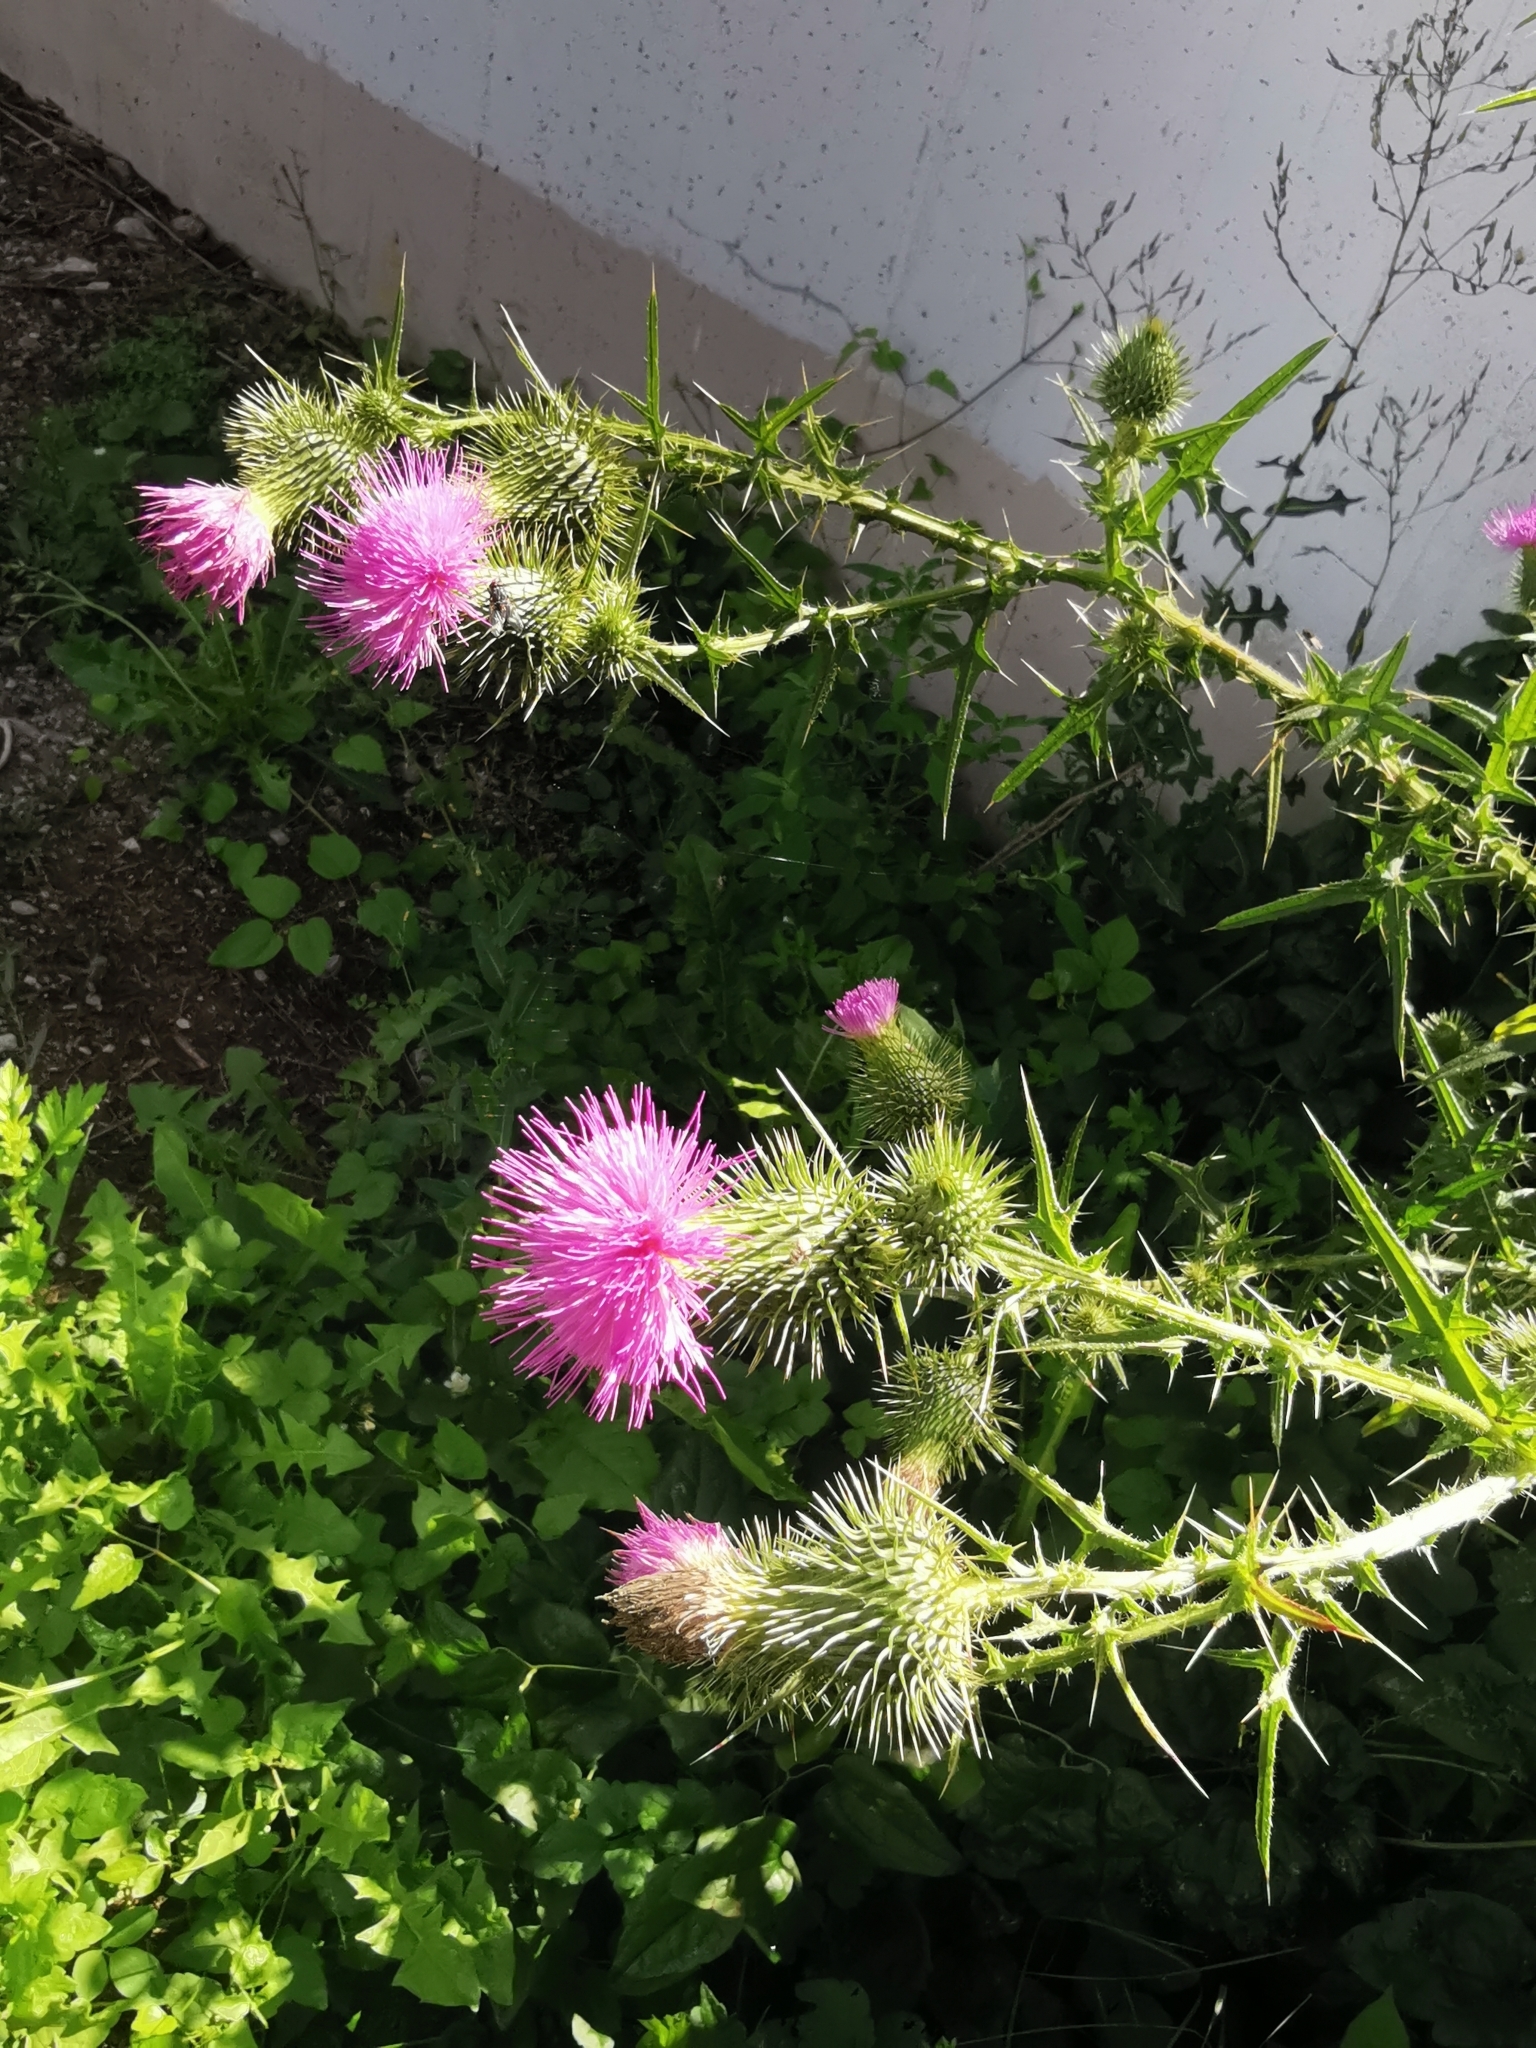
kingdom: Plantae
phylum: Tracheophyta
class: Magnoliopsida
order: Asterales
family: Asteraceae
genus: Cirsium
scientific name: Cirsium vulgare
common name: Bull thistle
